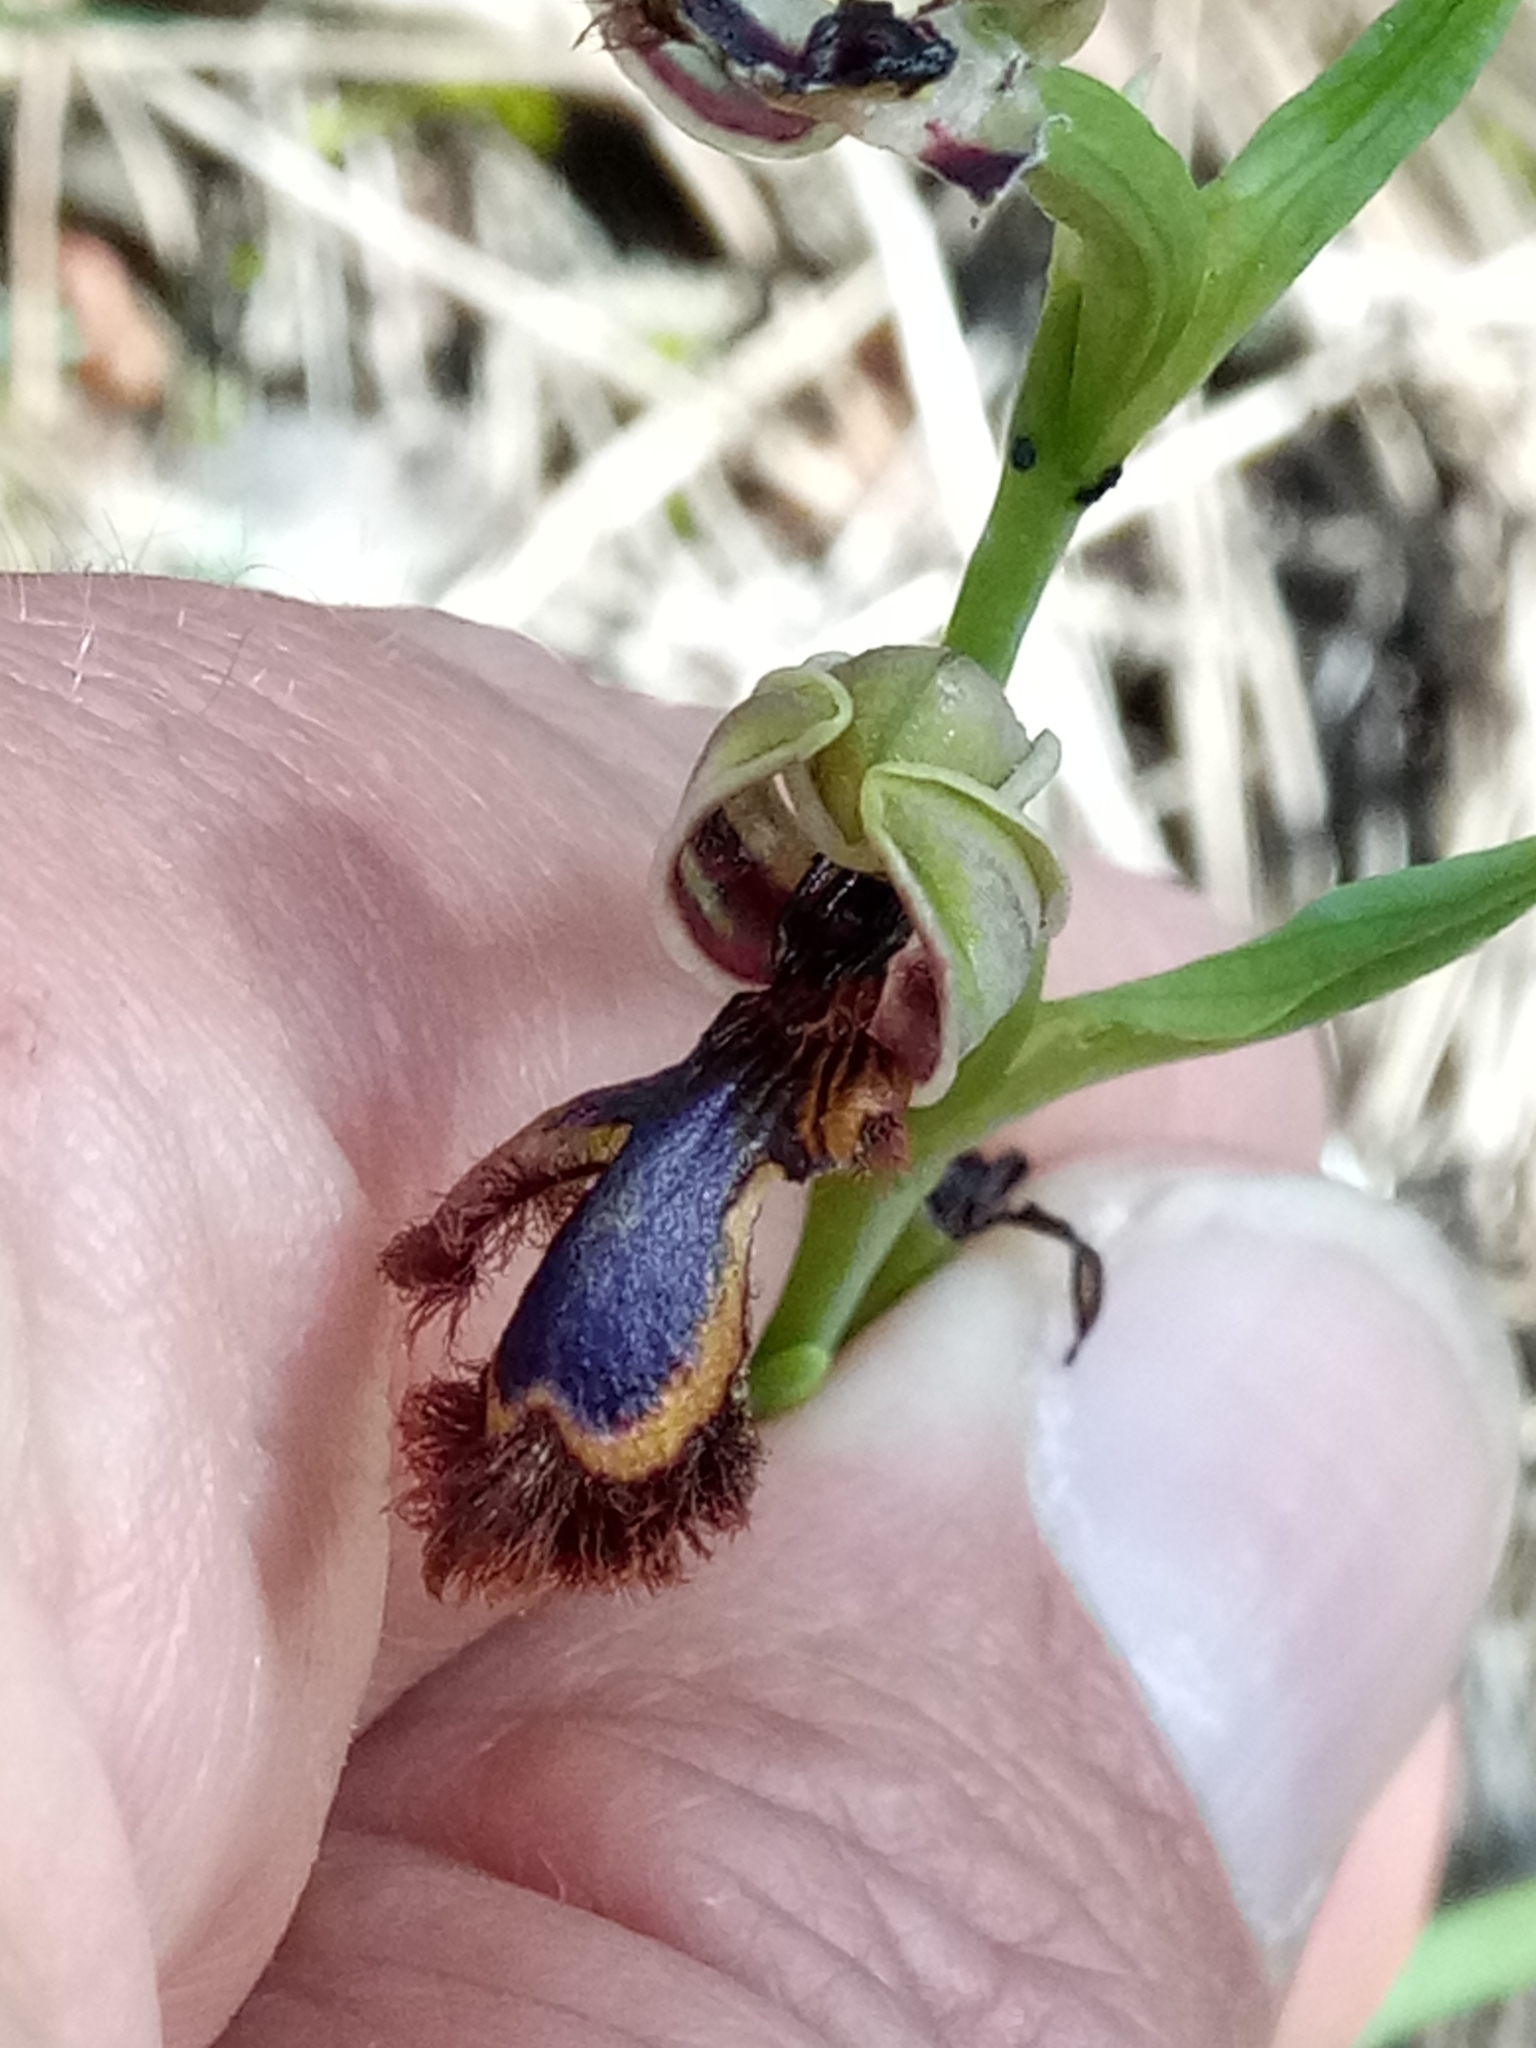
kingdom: Plantae
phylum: Tracheophyta
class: Liliopsida
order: Asparagales
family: Orchidaceae
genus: Ophrys
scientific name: Ophrys speculum
